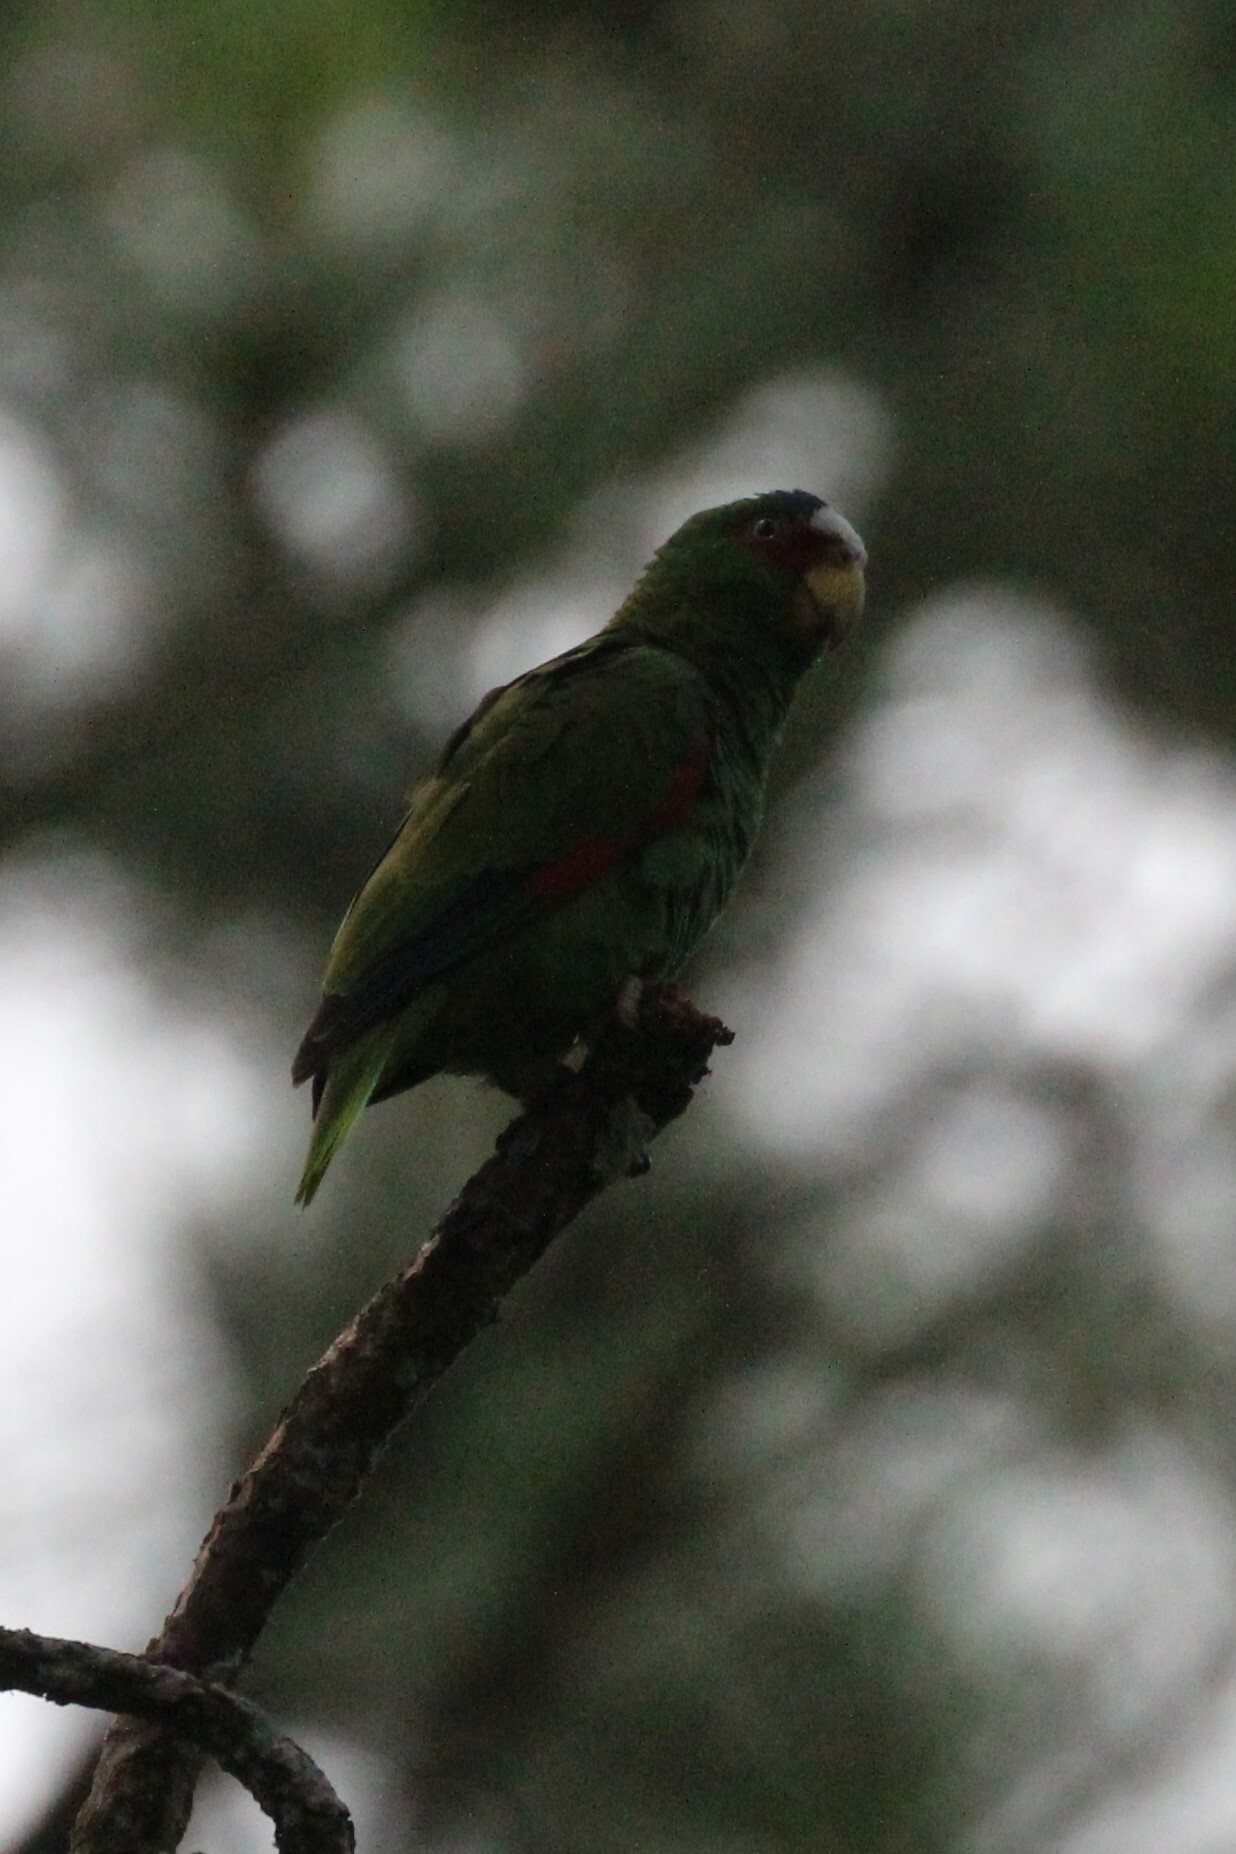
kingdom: Animalia
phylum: Chordata
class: Aves
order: Psittaciformes
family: Psittacidae
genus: Amazona
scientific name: Amazona albifrons
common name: White-fronted amazon
